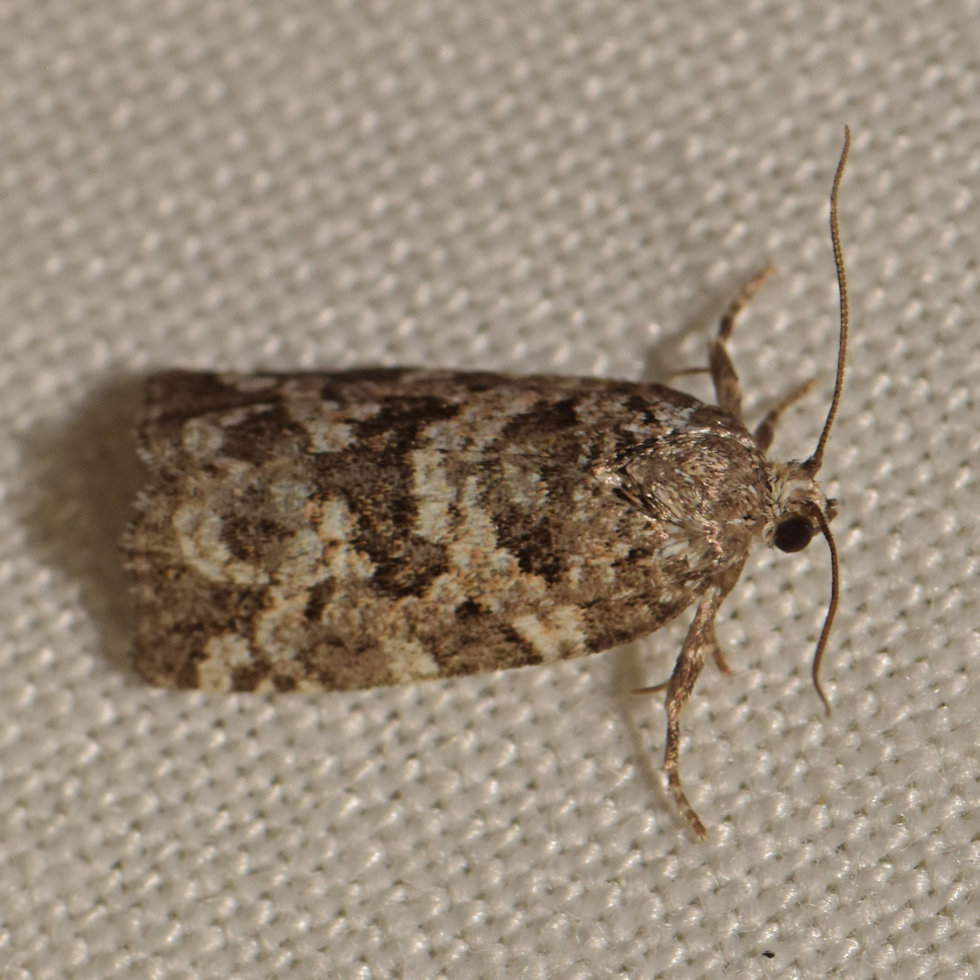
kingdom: Animalia
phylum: Arthropoda
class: Insecta
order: Lepidoptera
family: Tortricidae
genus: Archips
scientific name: Archips packardiana
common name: Spring spruce needle moth
